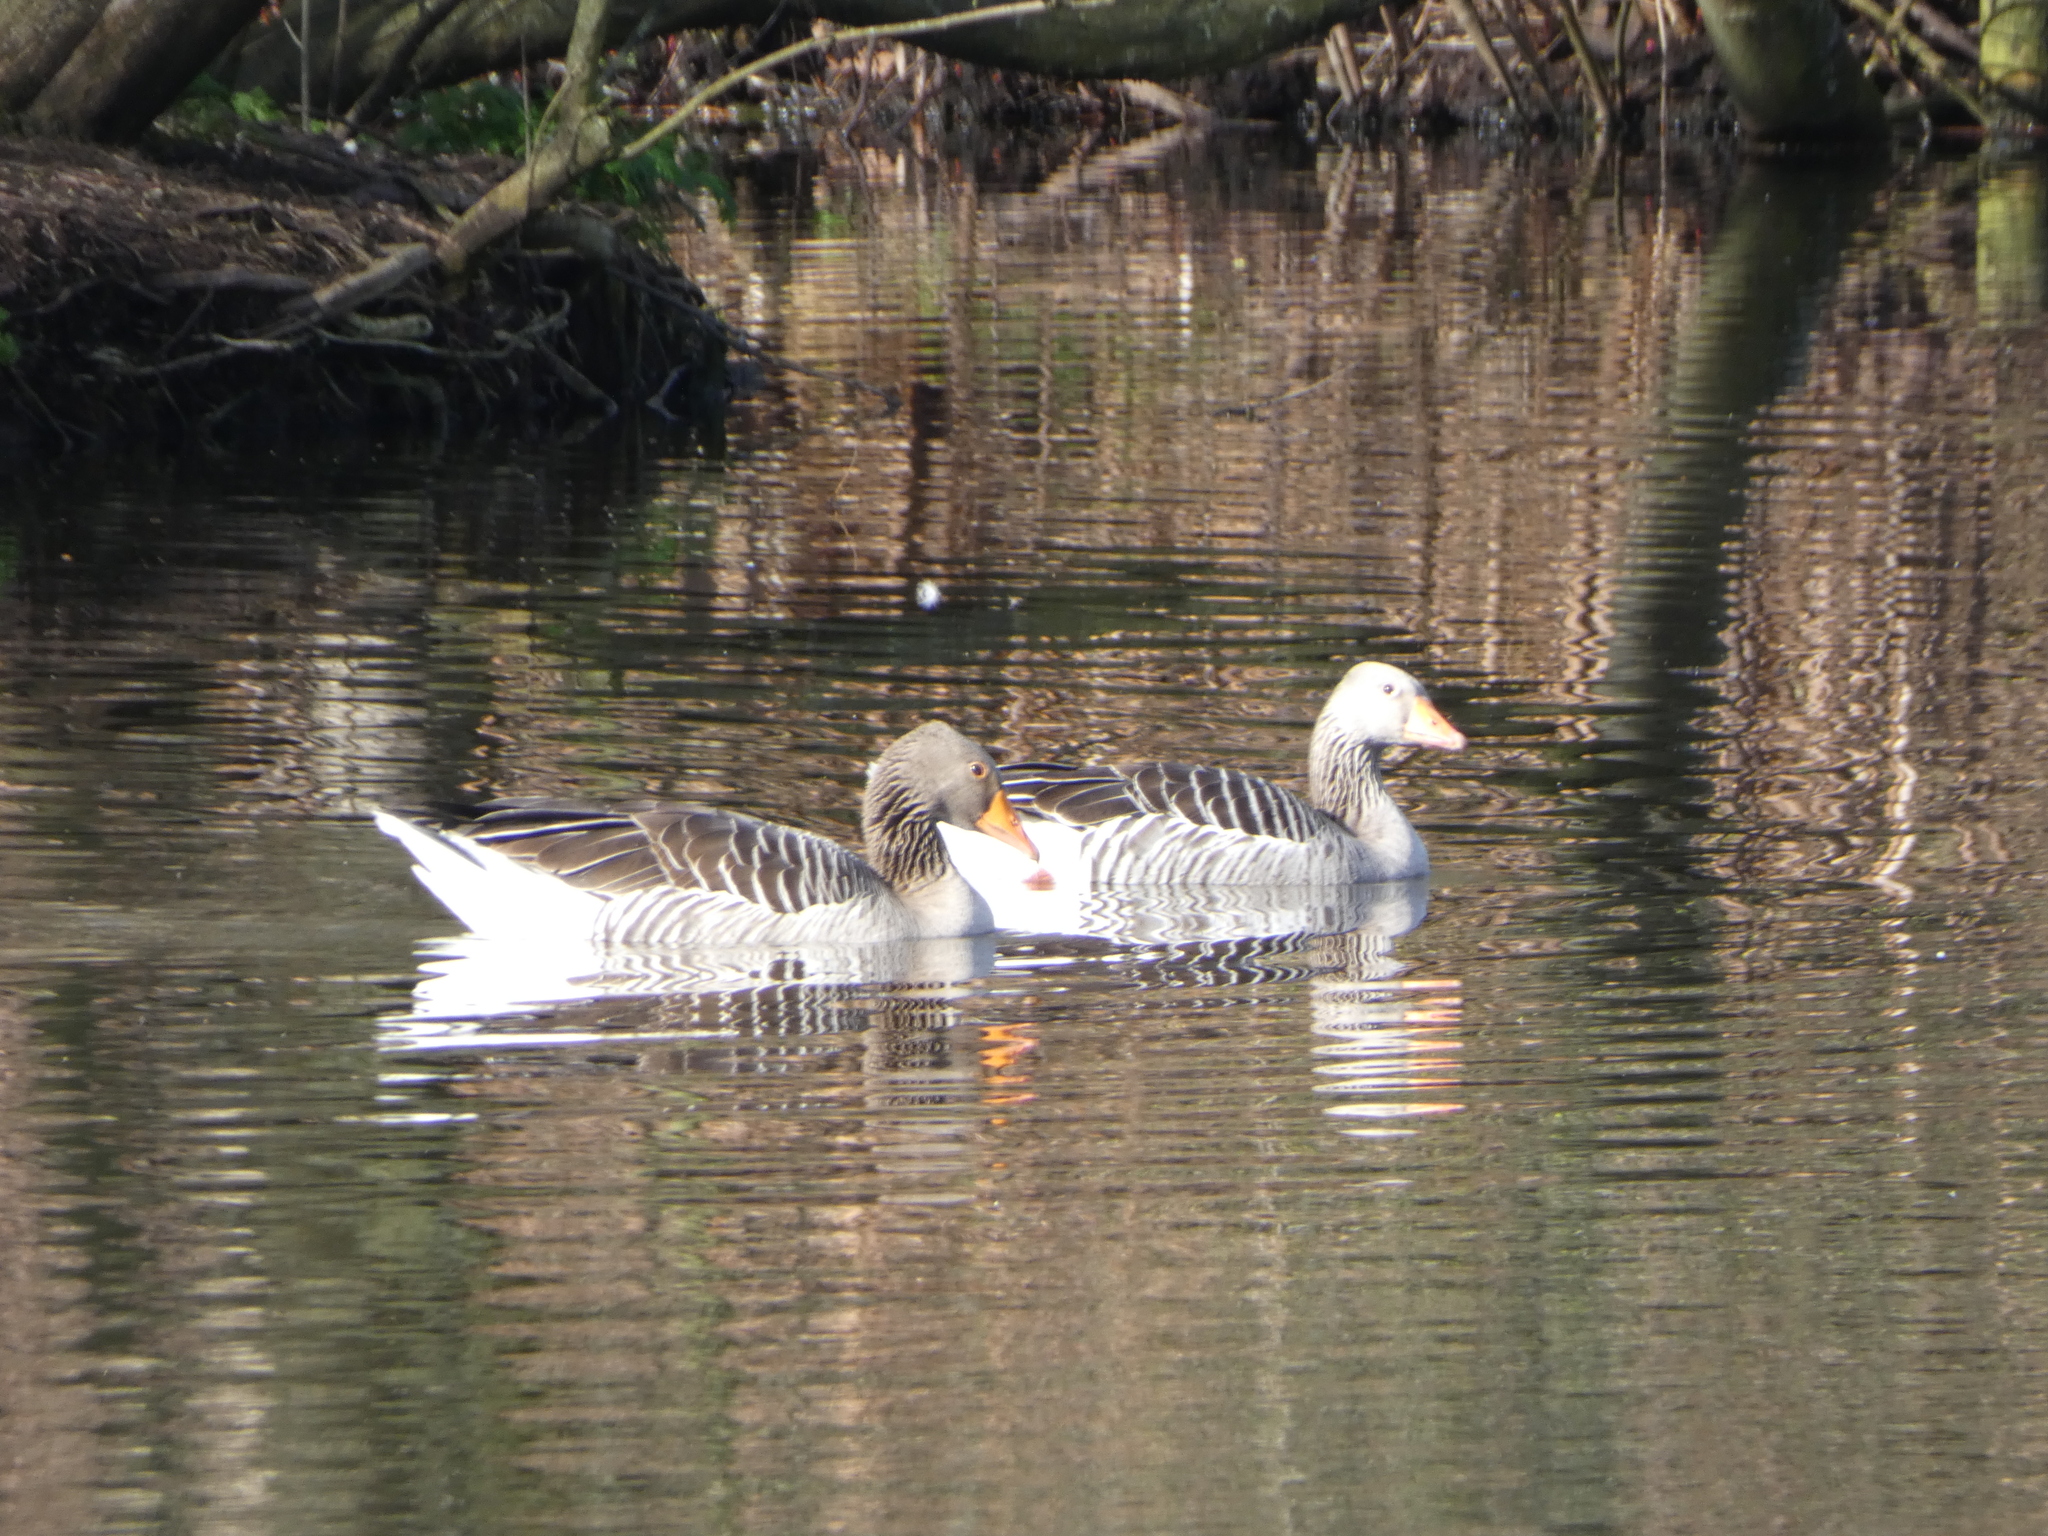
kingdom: Animalia
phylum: Chordata
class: Aves
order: Anseriformes
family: Anatidae
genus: Anser
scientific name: Anser anser
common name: Greylag goose
